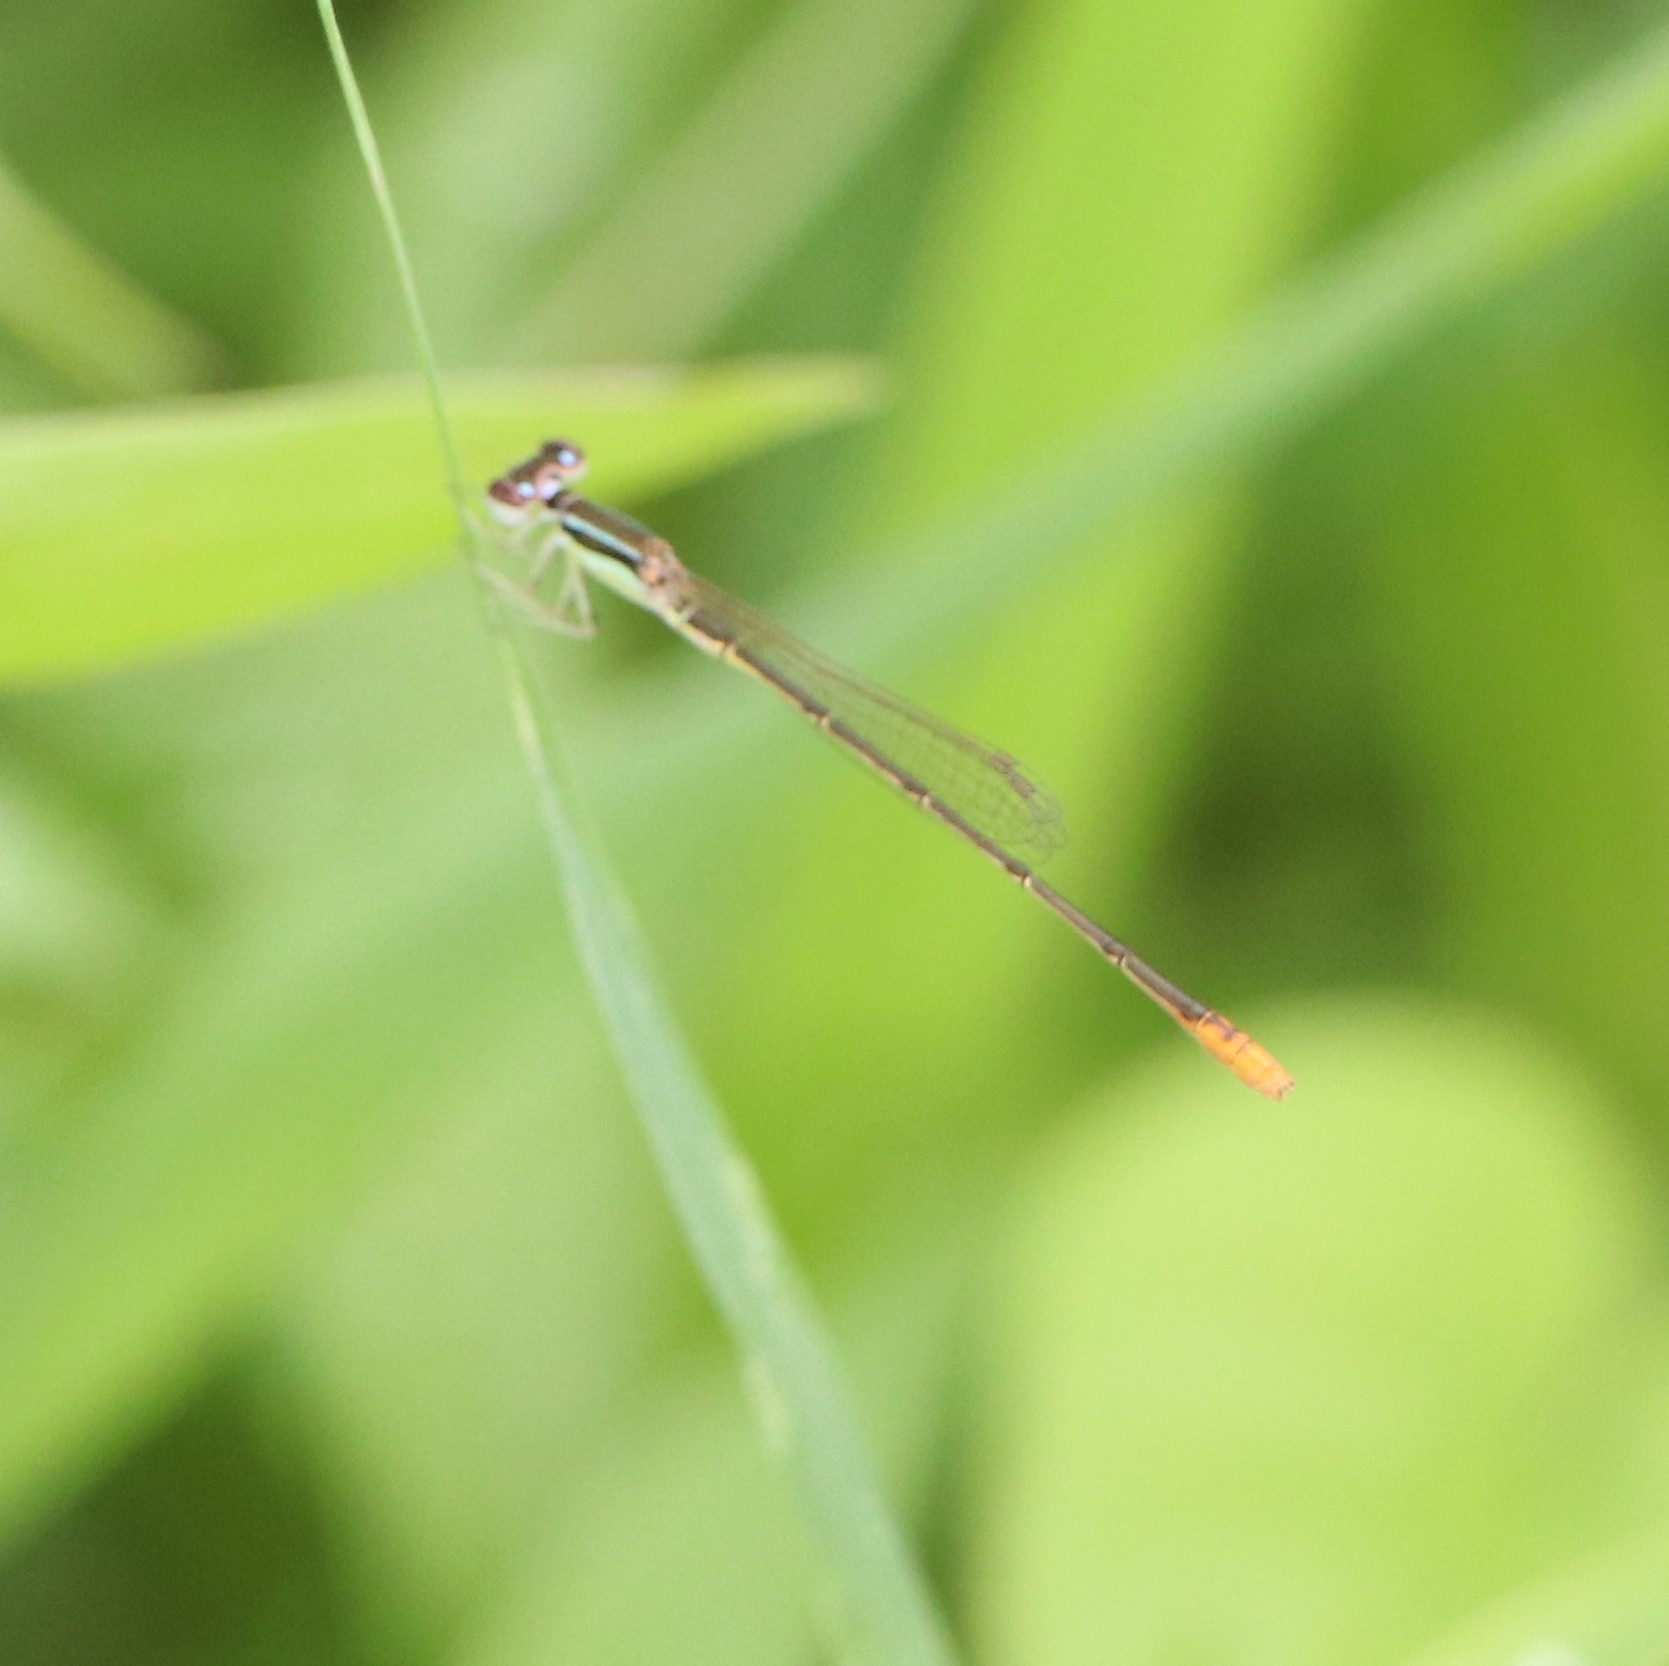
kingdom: Animalia
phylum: Arthropoda
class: Insecta
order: Odonata
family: Coenagrionidae
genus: Agriocnemis
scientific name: Agriocnemis pygmaea
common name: Pygmy wisp
